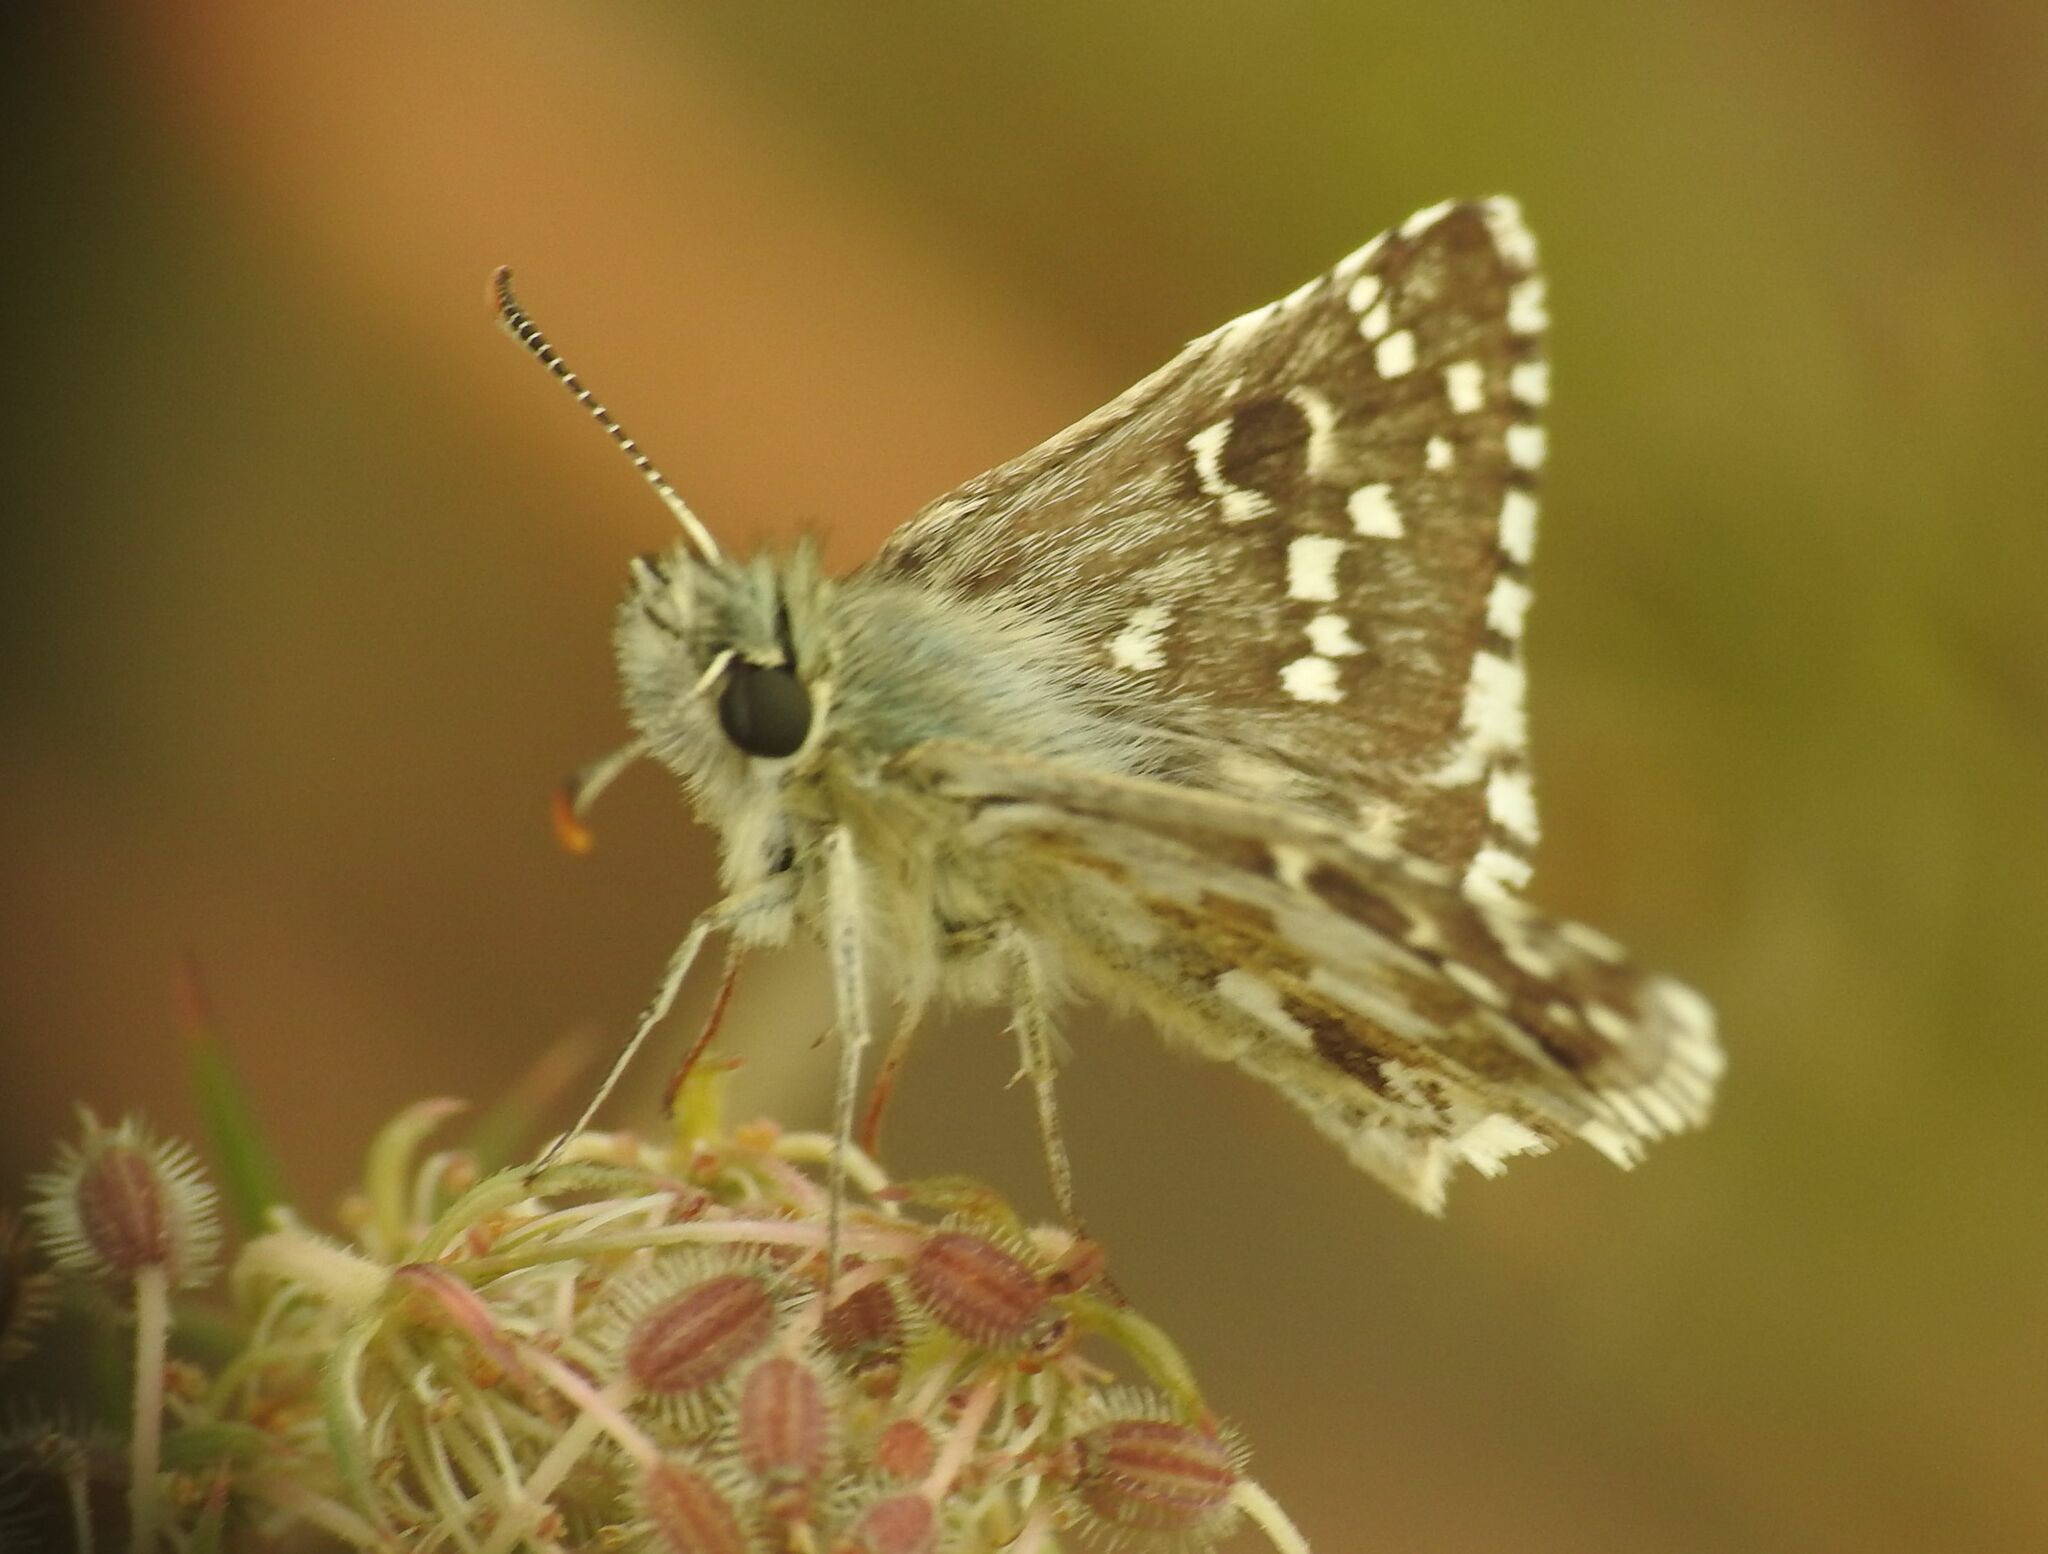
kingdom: Animalia
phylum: Arthropoda
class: Insecta
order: Lepidoptera
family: Hesperiidae
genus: Pyrgus
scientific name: Pyrgus armoricanus
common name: Oberthür's grizzled skipper
